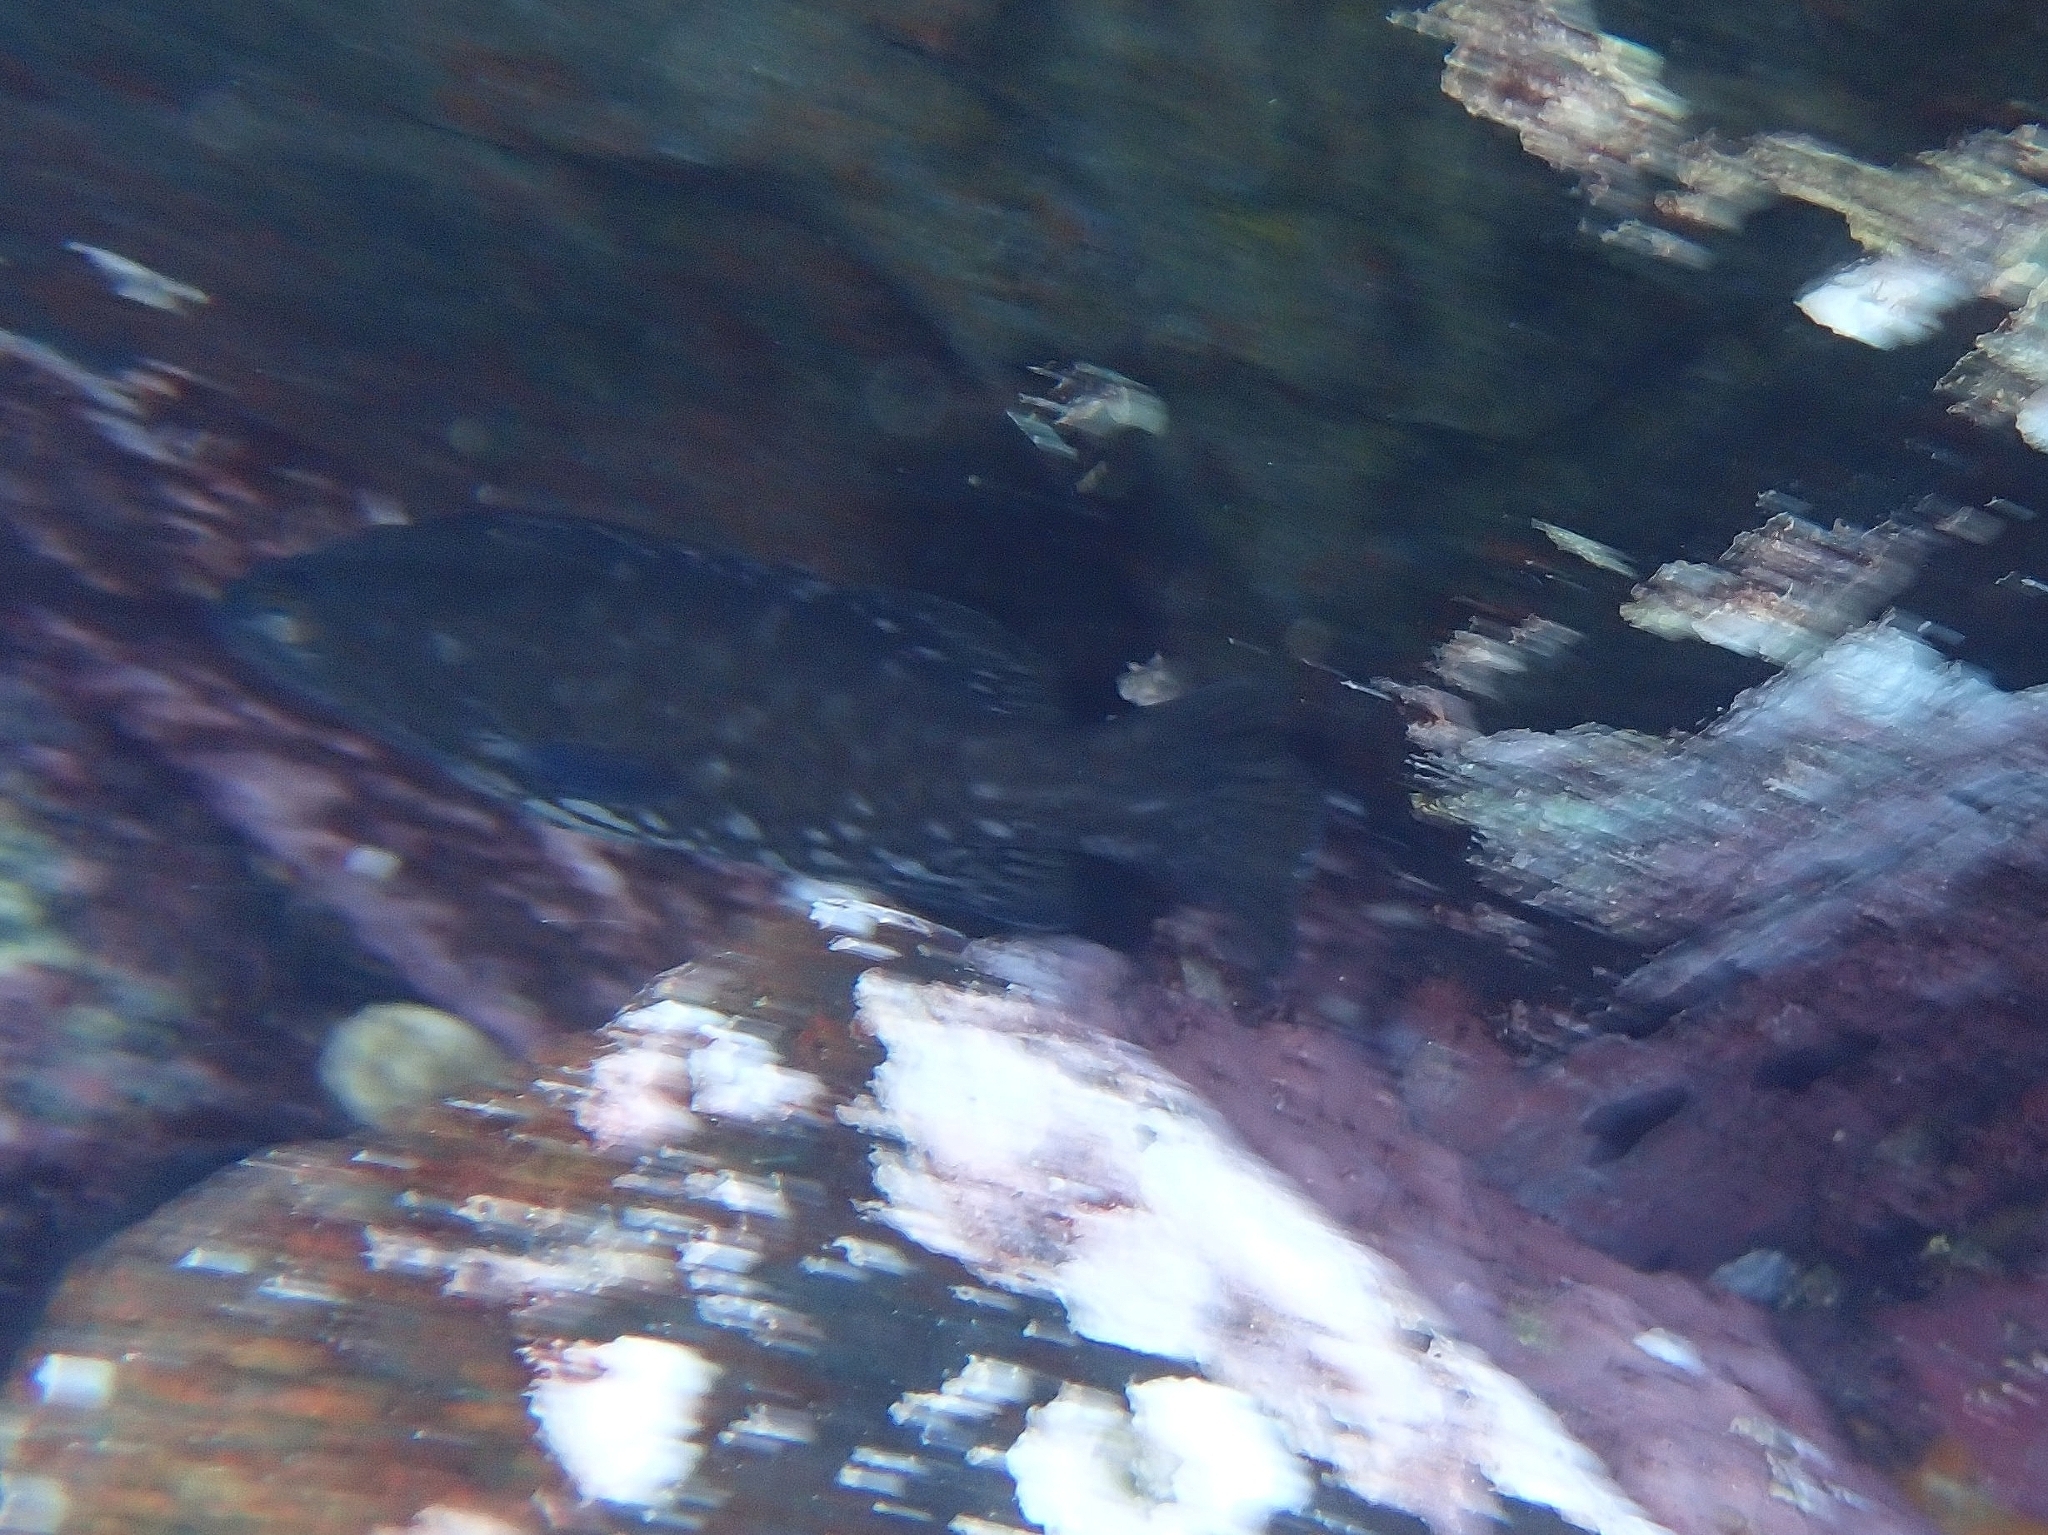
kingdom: Animalia
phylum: Chordata
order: Perciformes
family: Serranidae
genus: Mycteroperca
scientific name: Mycteroperca fusca
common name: Island grouper
